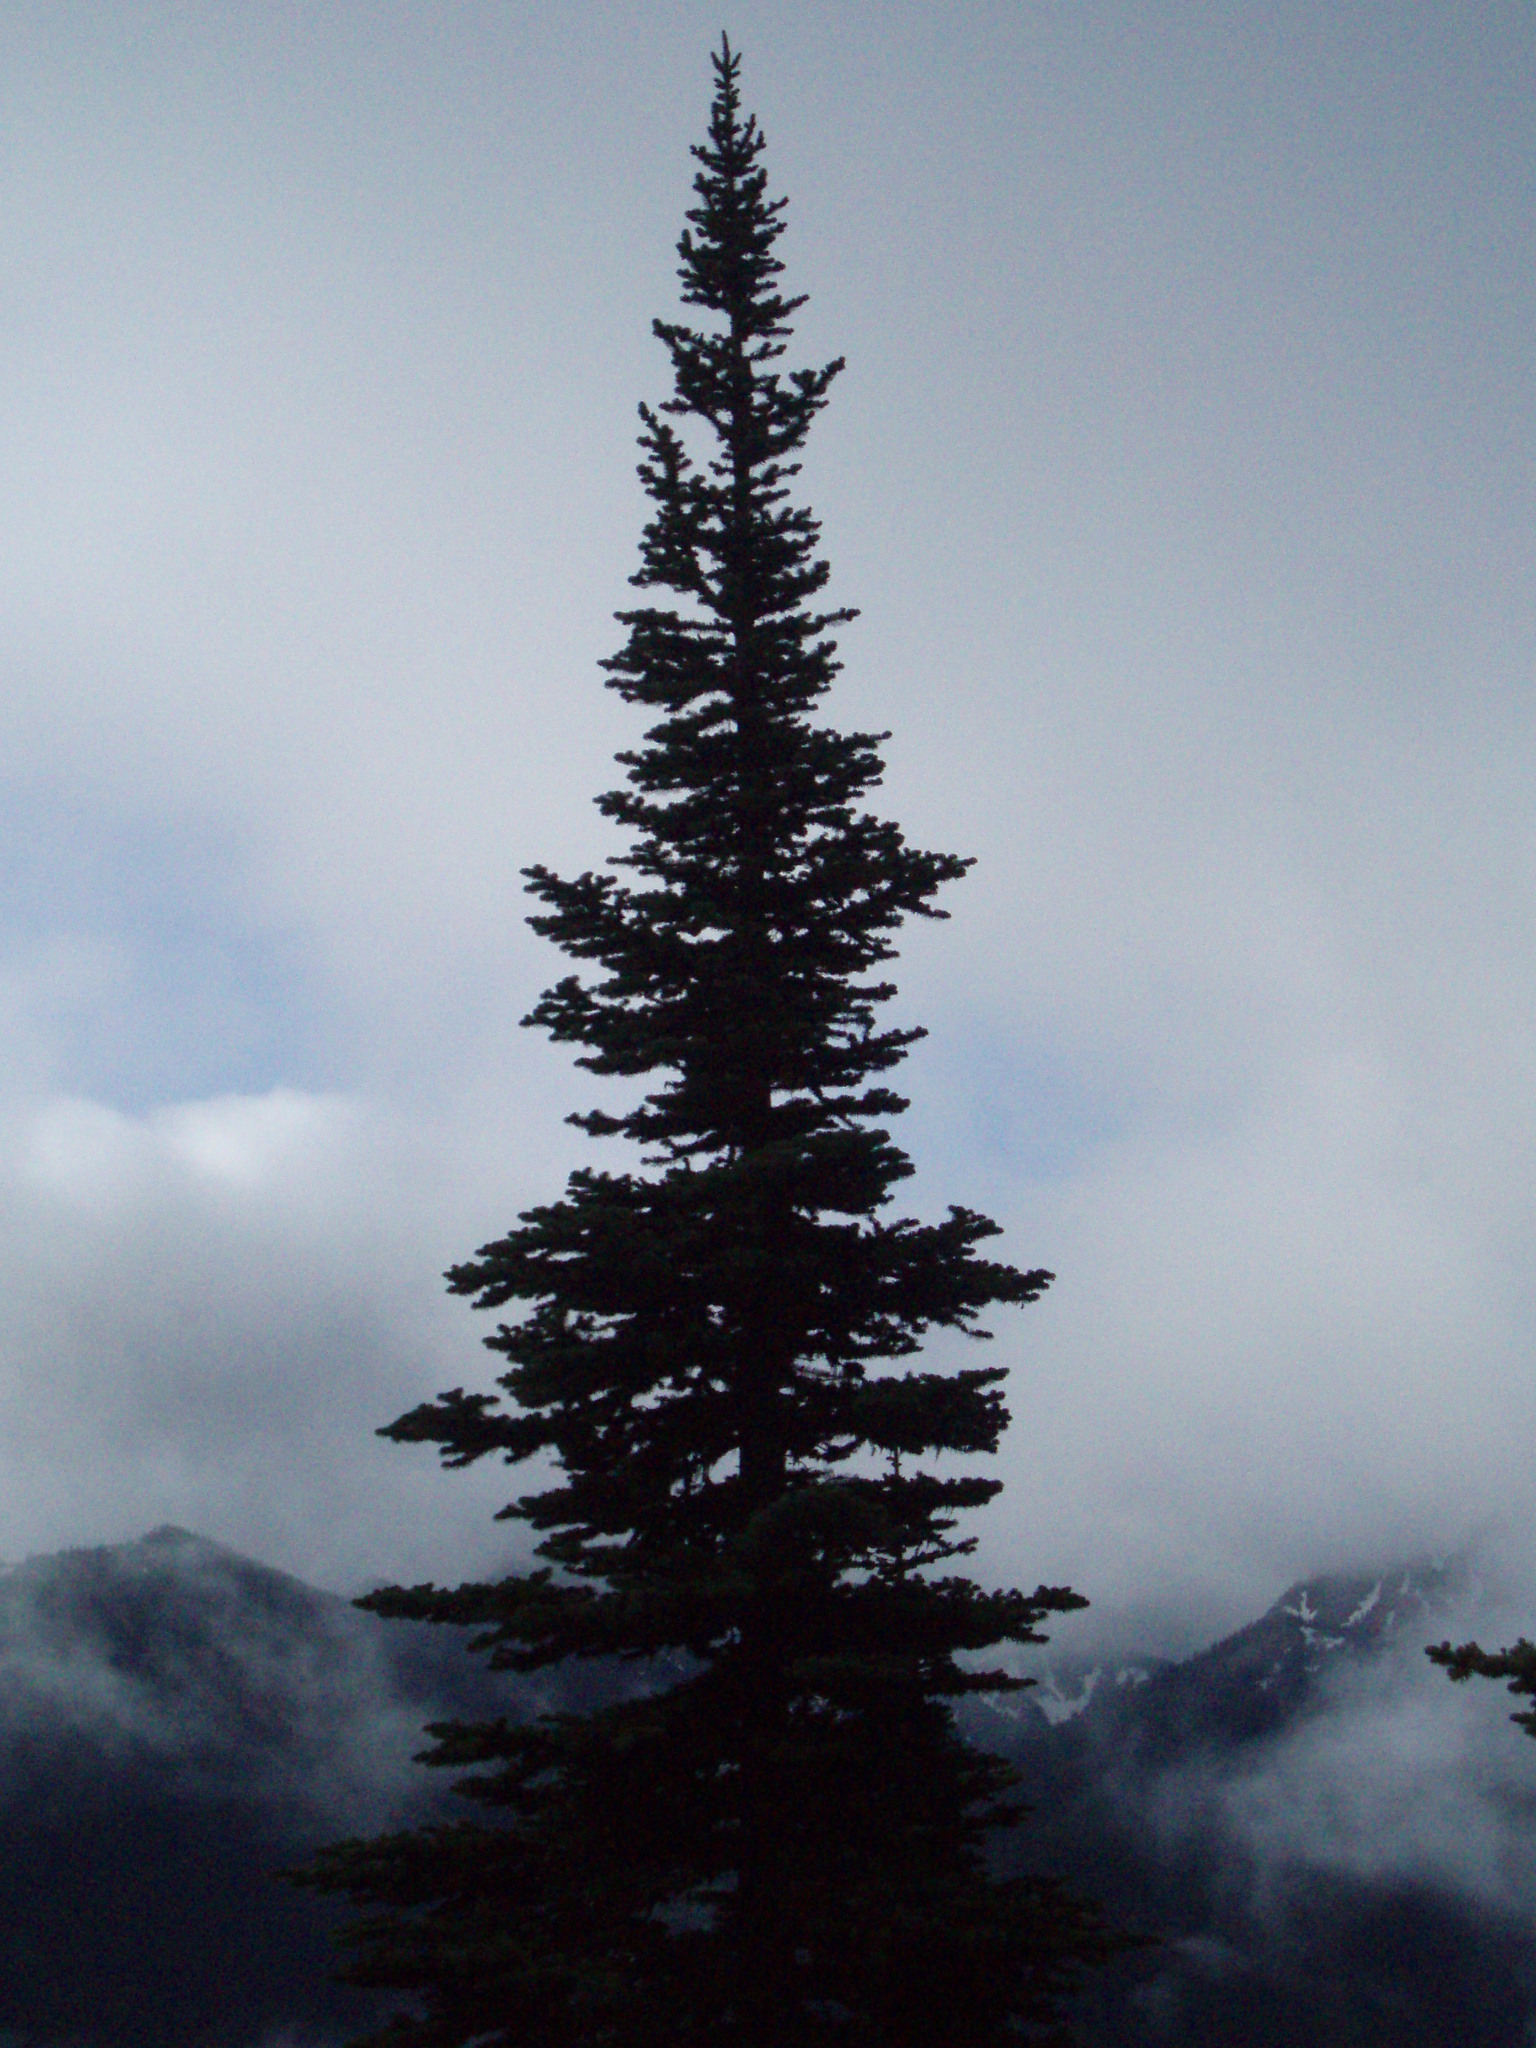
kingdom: Plantae
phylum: Tracheophyta
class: Pinopsida
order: Pinales
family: Pinaceae
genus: Abies
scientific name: Abies lasiocarpa
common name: Subalpine fir
